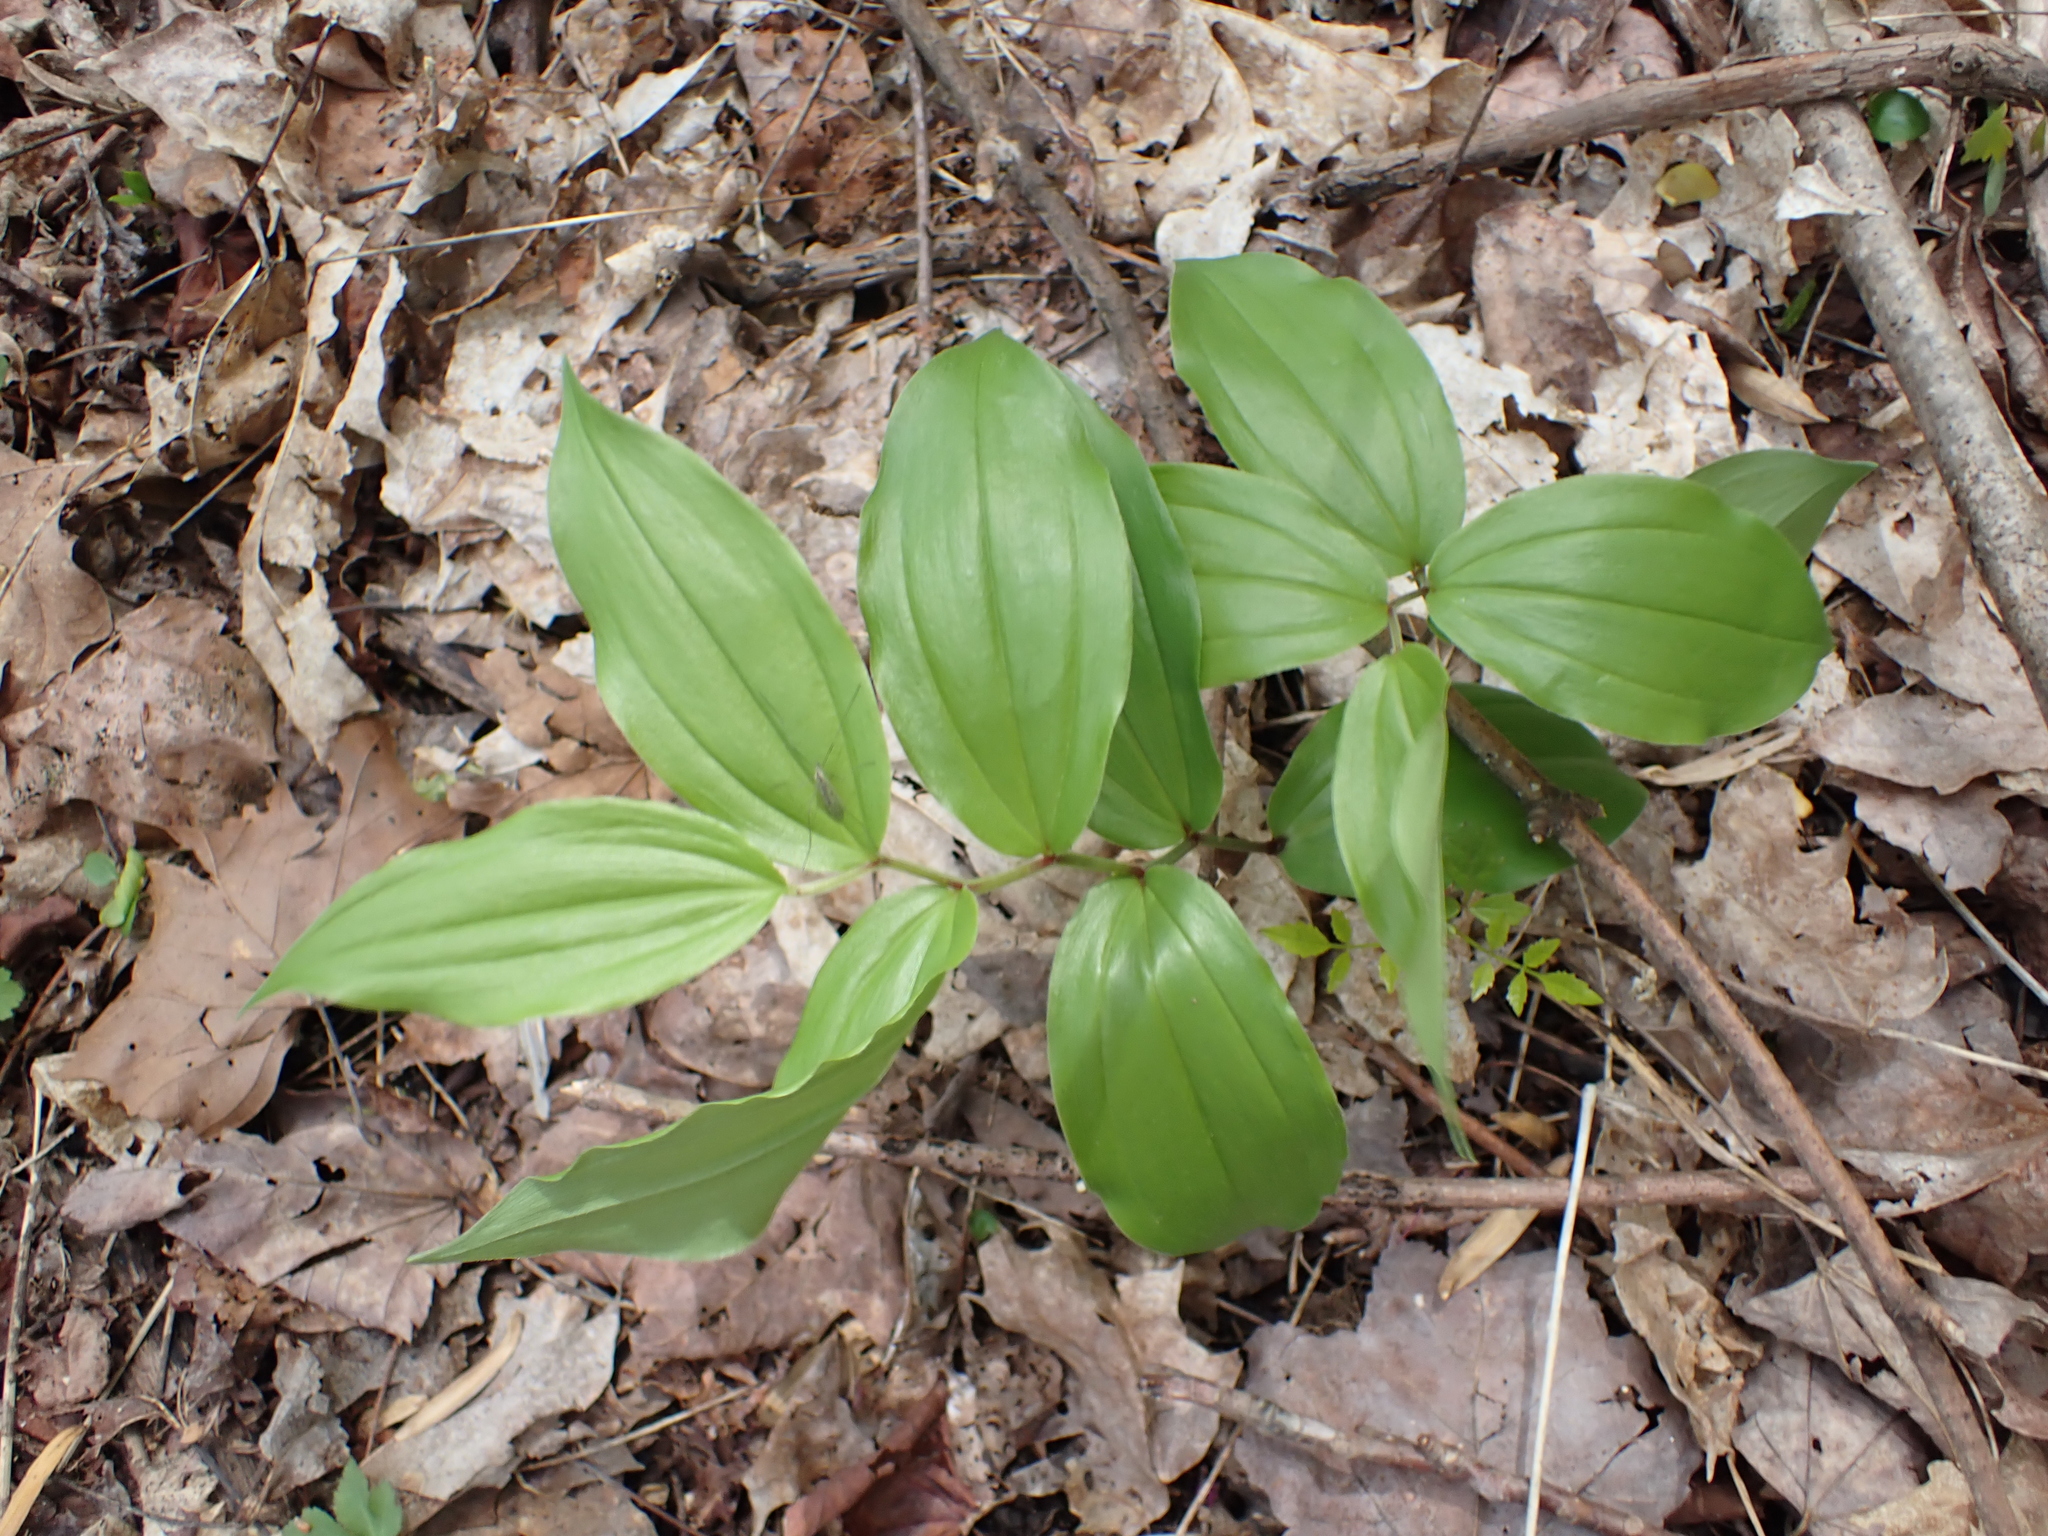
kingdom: Plantae
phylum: Tracheophyta
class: Liliopsida
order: Asparagales
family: Asparagaceae
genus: Maianthemum
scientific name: Maianthemum racemosum
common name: False spikenard
